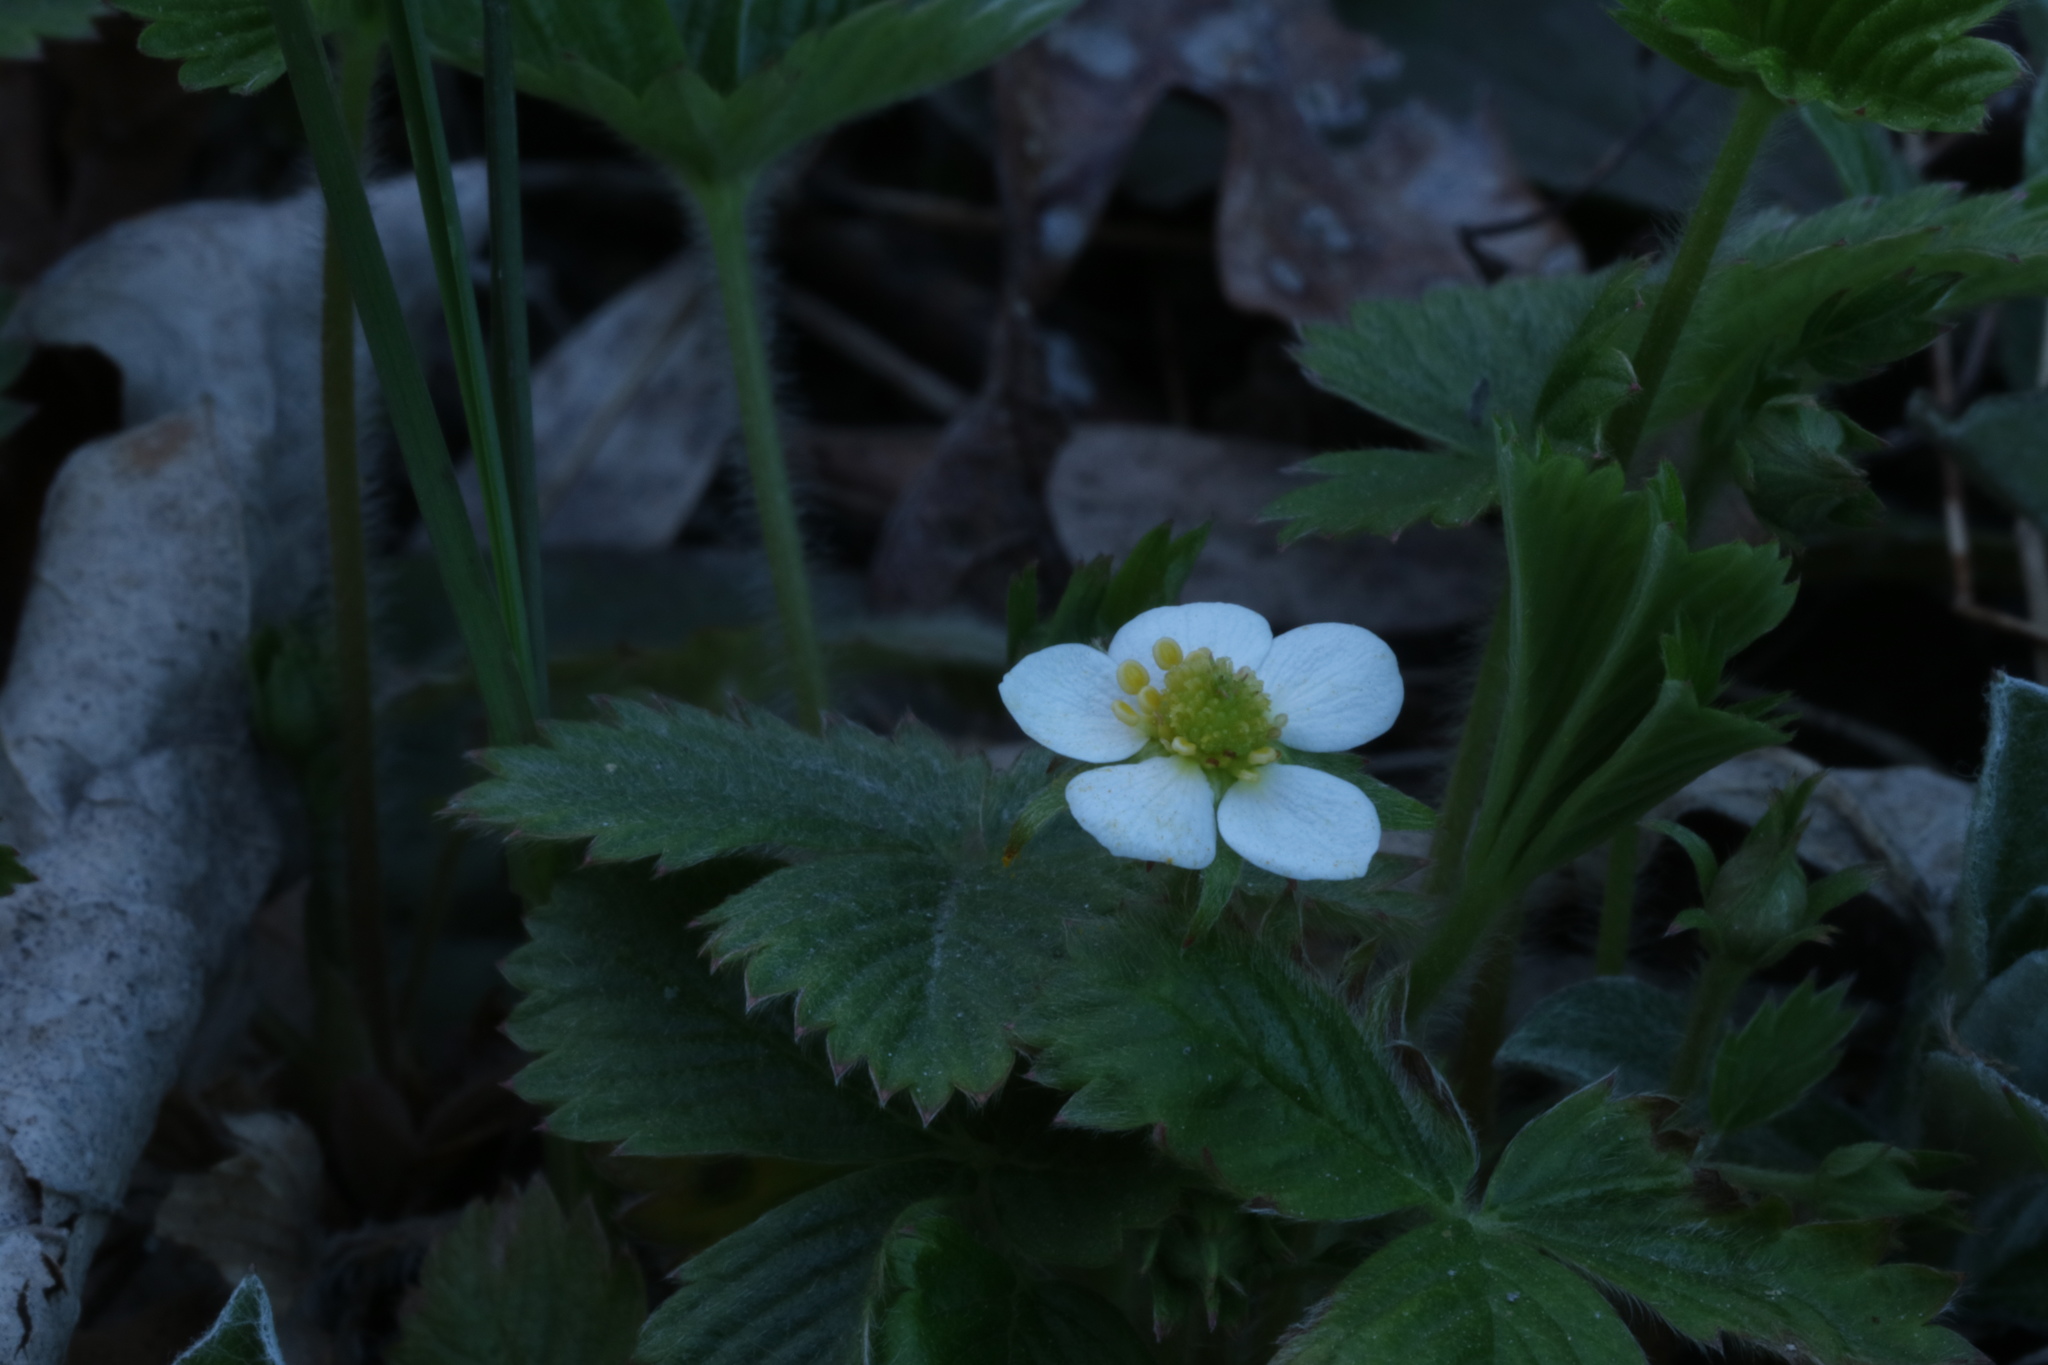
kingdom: Plantae
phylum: Tracheophyta
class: Magnoliopsida
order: Rosales
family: Rosaceae
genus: Fragaria
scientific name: Fragaria vesca
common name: Wild strawberry
